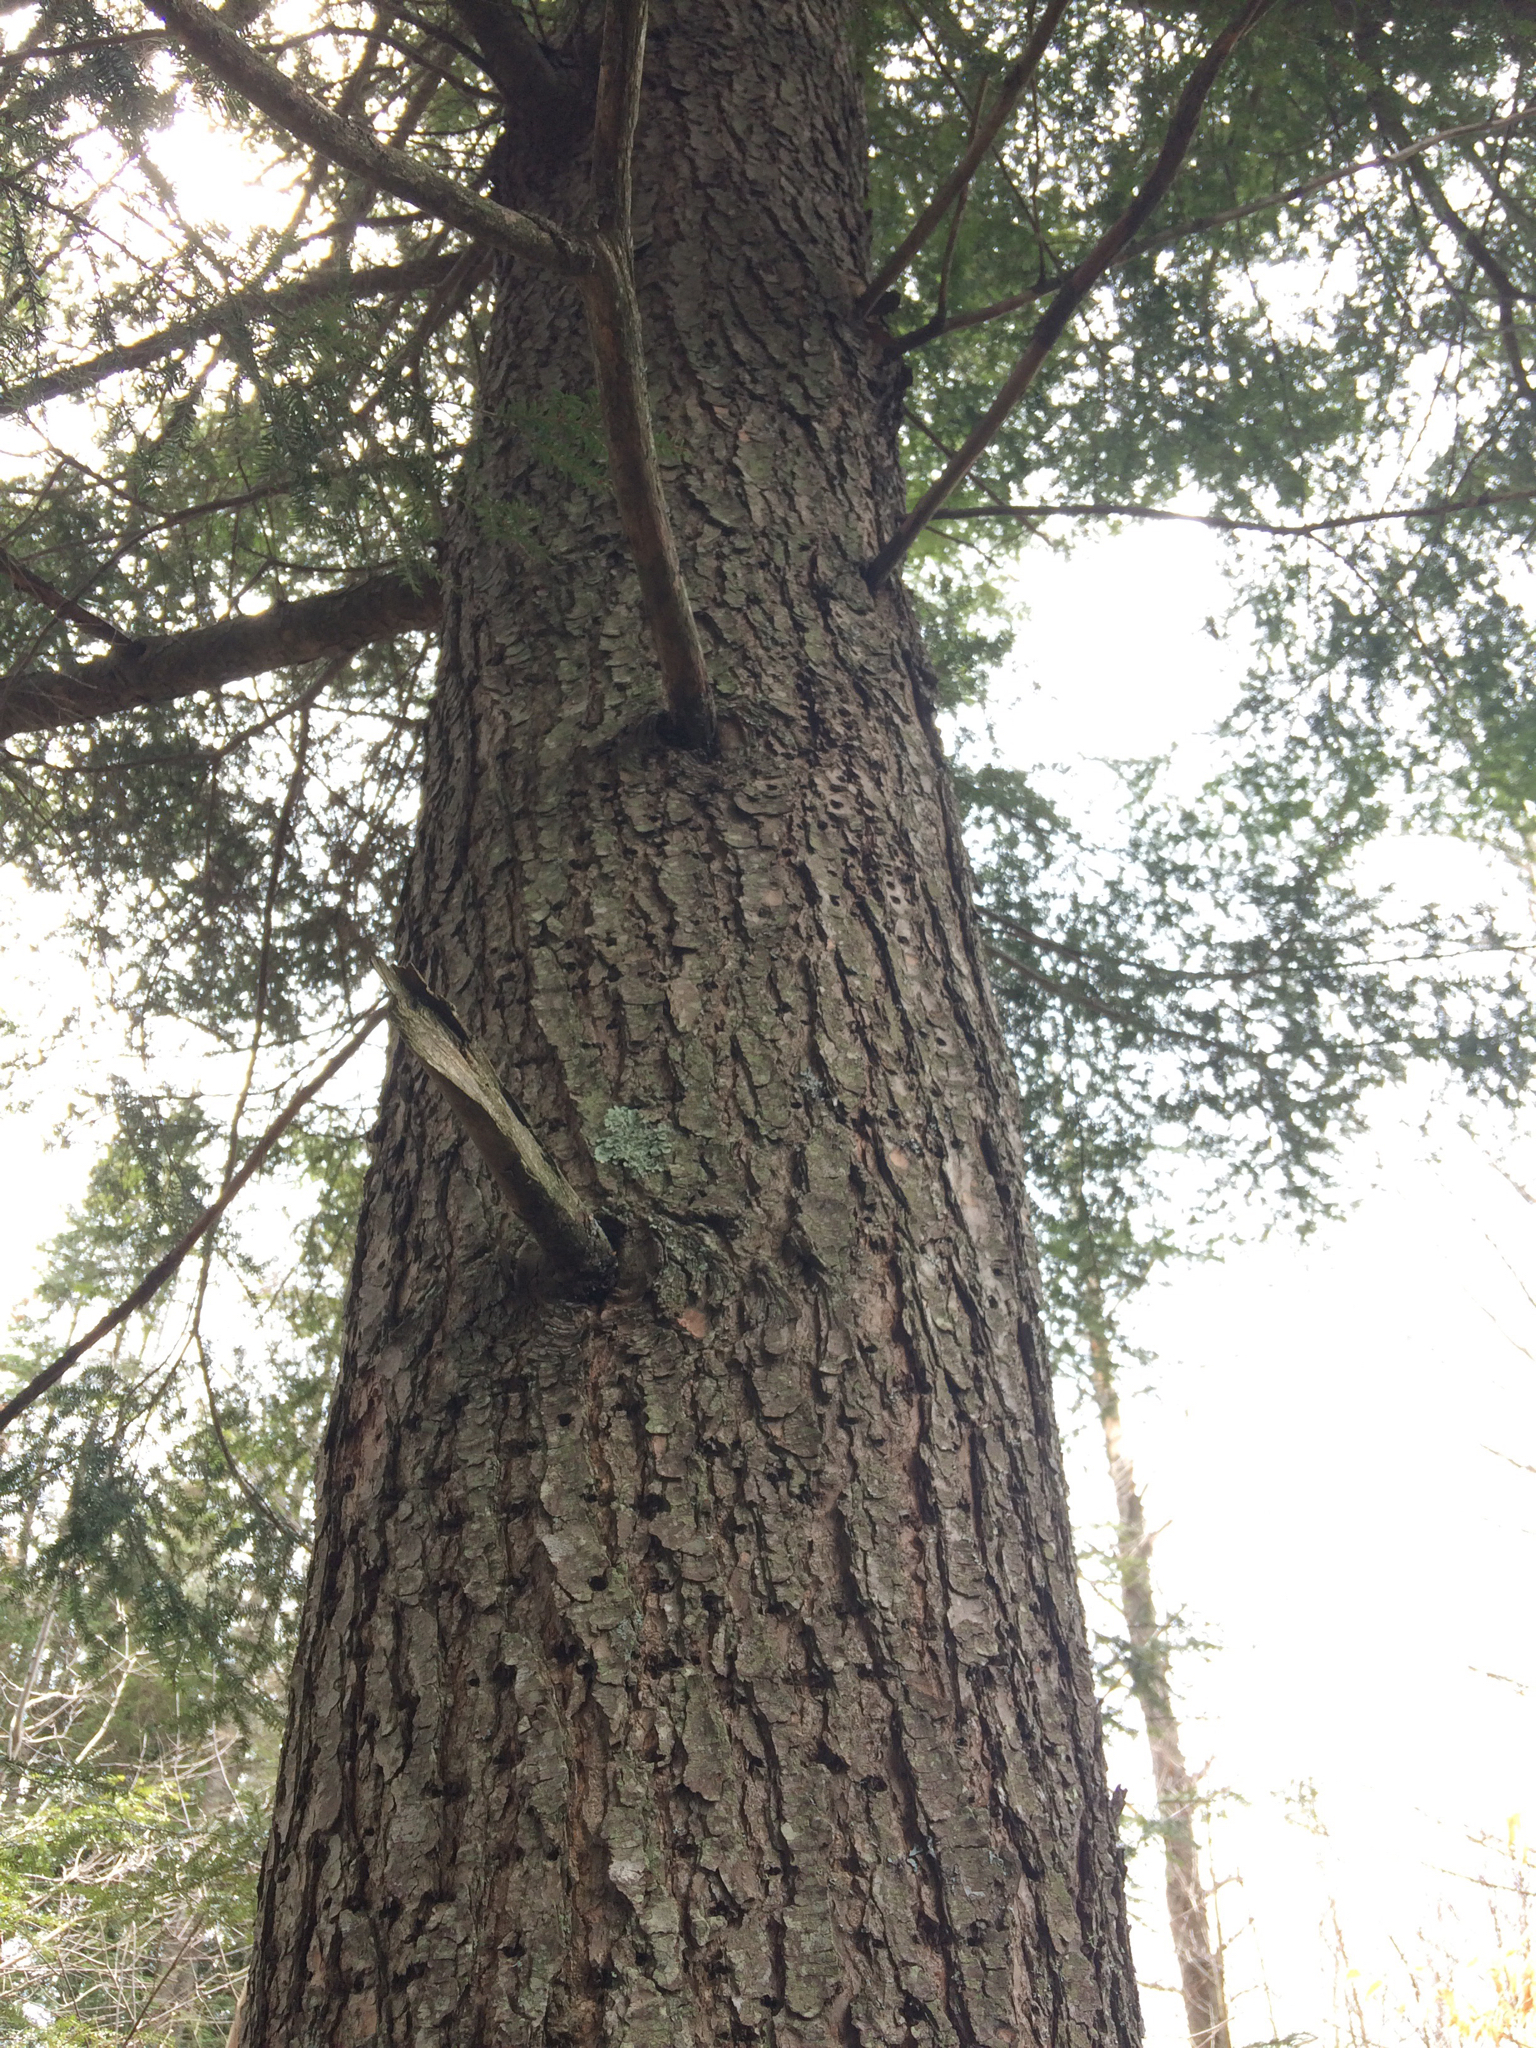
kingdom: Plantae
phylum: Tracheophyta
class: Pinopsida
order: Pinales
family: Pinaceae
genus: Tsuga
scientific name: Tsuga canadensis
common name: Eastern hemlock
